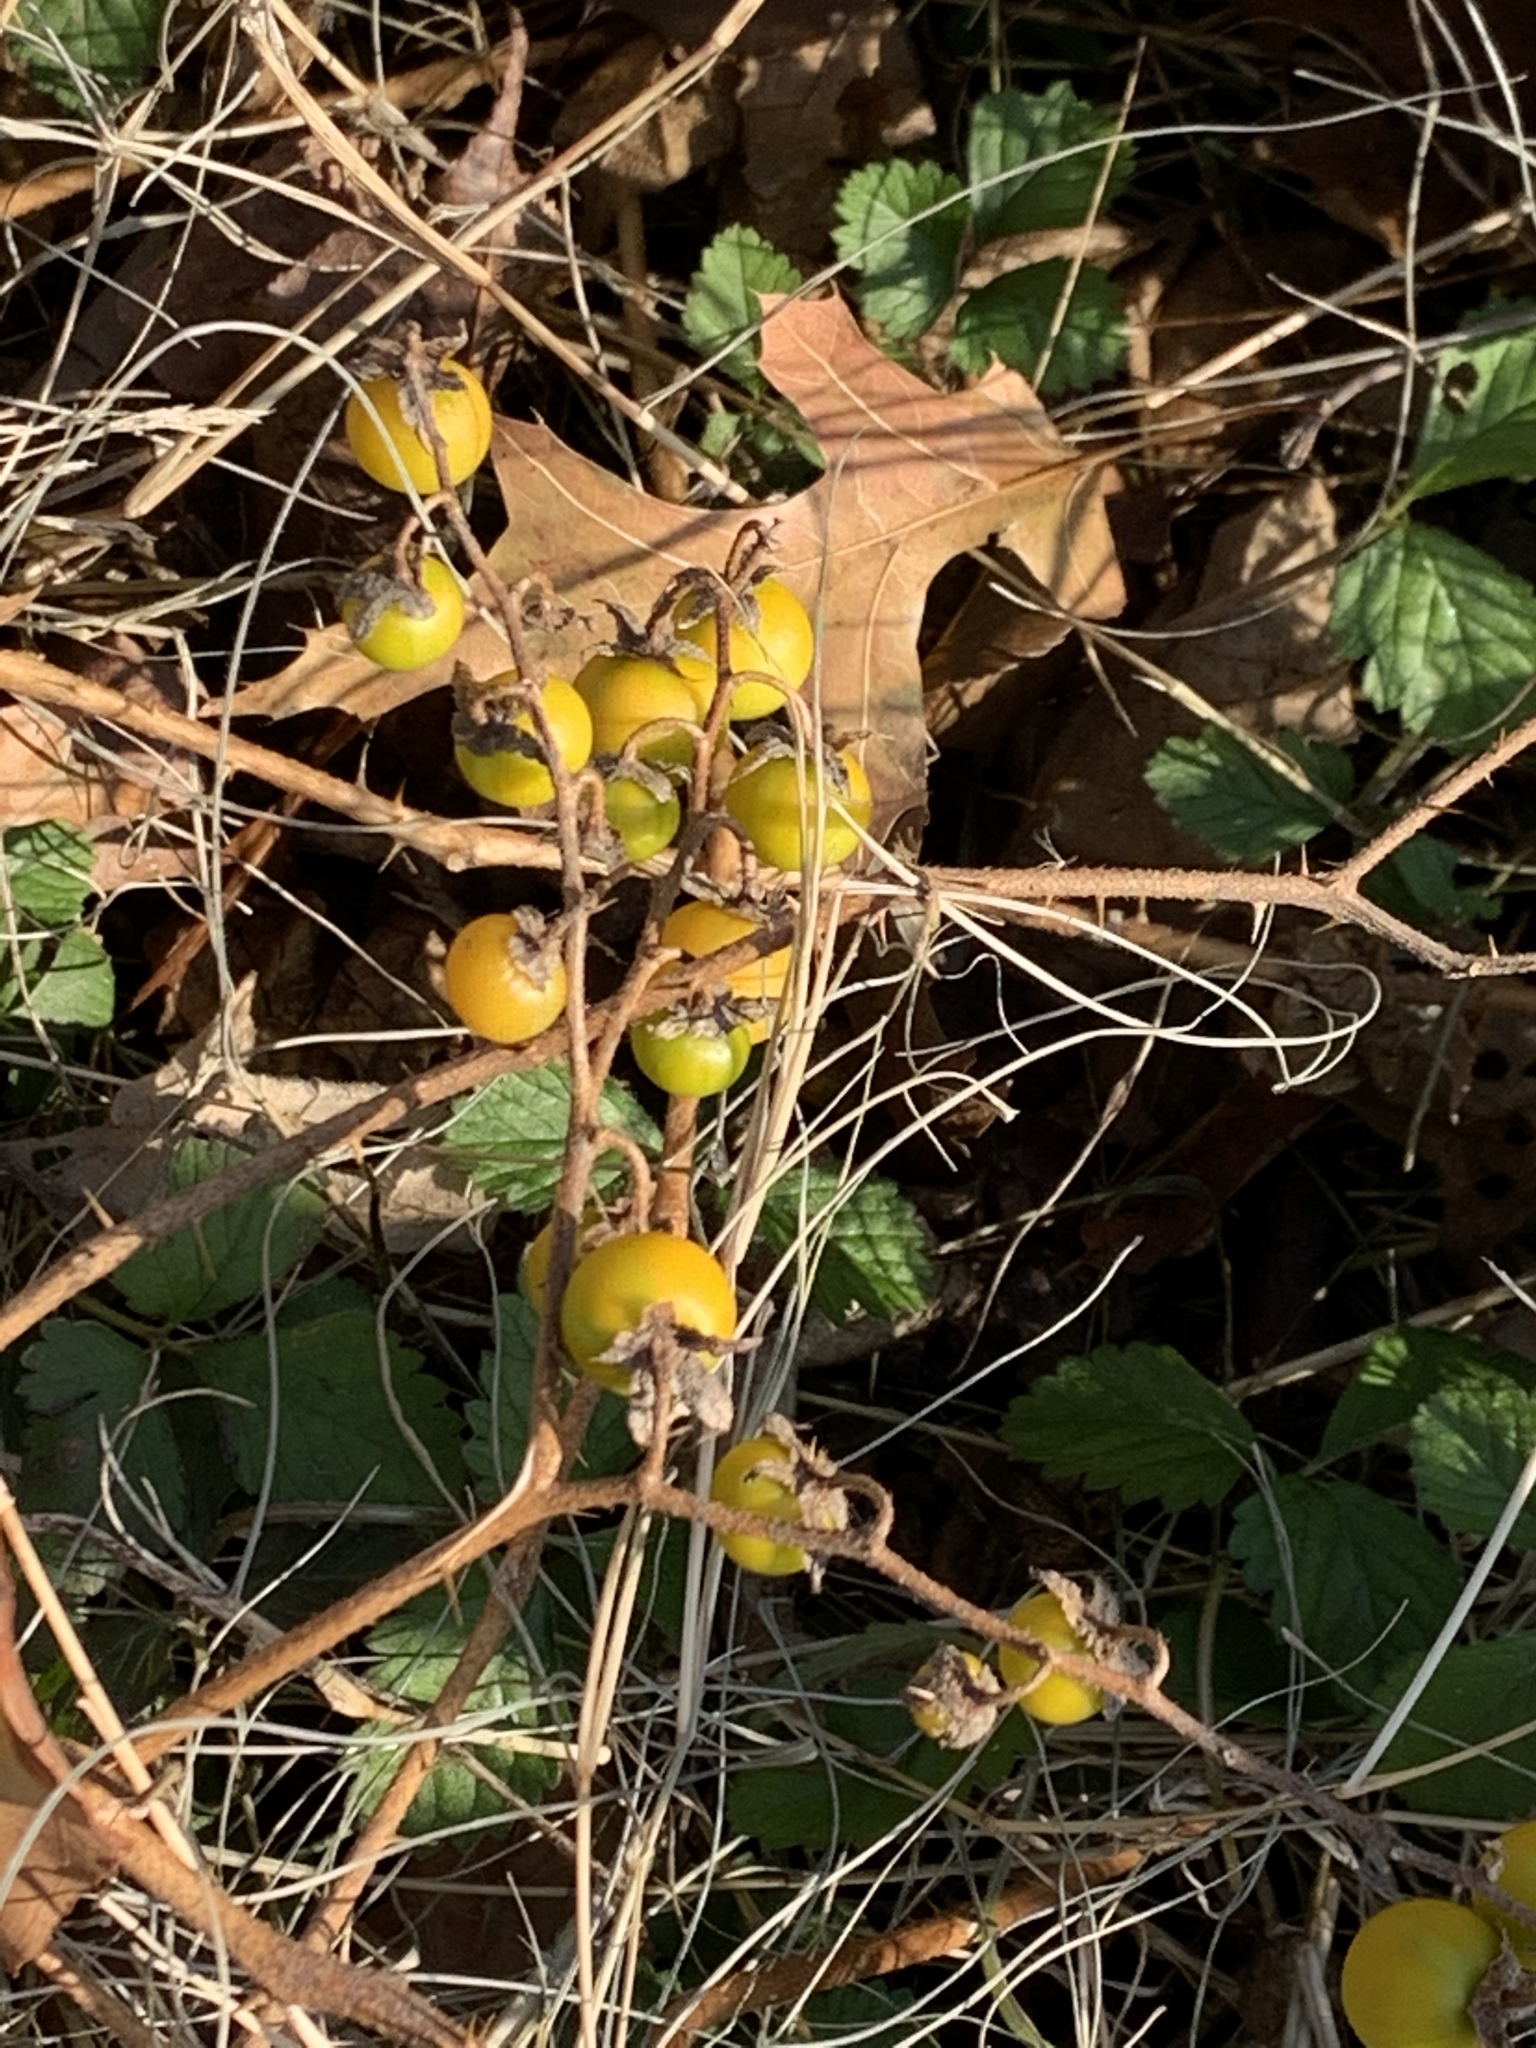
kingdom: Plantae
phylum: Tracheophyta
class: Magnoliopsida
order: Solanales
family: Solanaceae
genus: Solanum
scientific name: Solanum carolinense
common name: Horse-nettle
